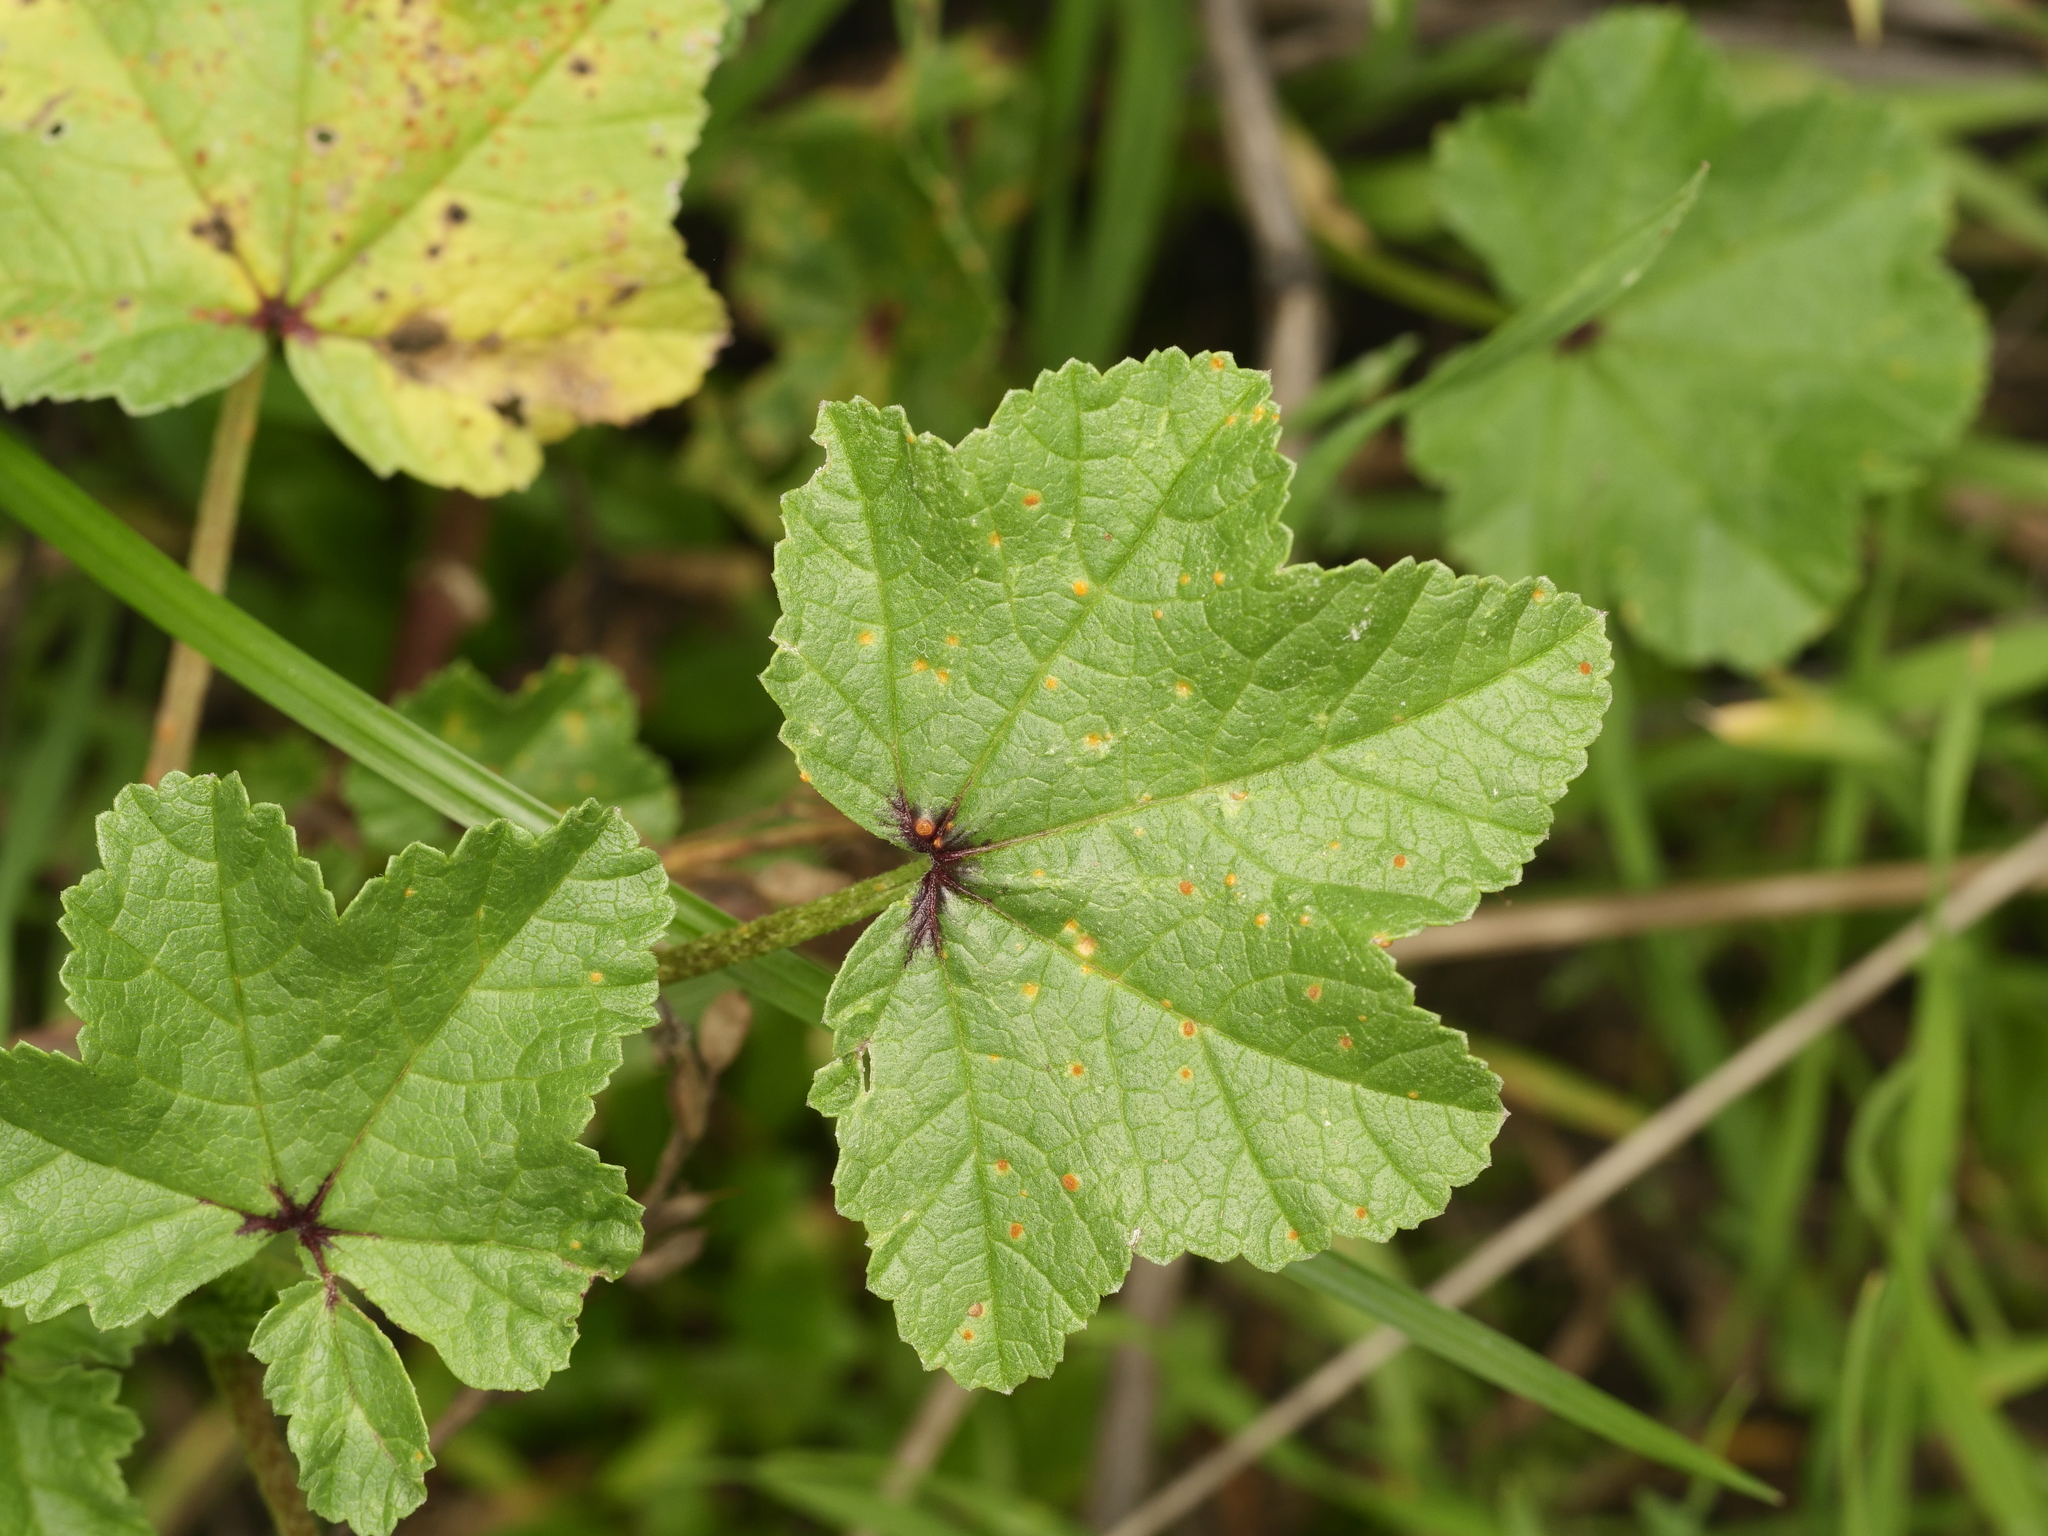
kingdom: Plantae
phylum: Tracheophyta
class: Magnoliopsida
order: Malvales
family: Malvaceae
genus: Malva
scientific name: Malva sylvestris
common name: Common mallow
